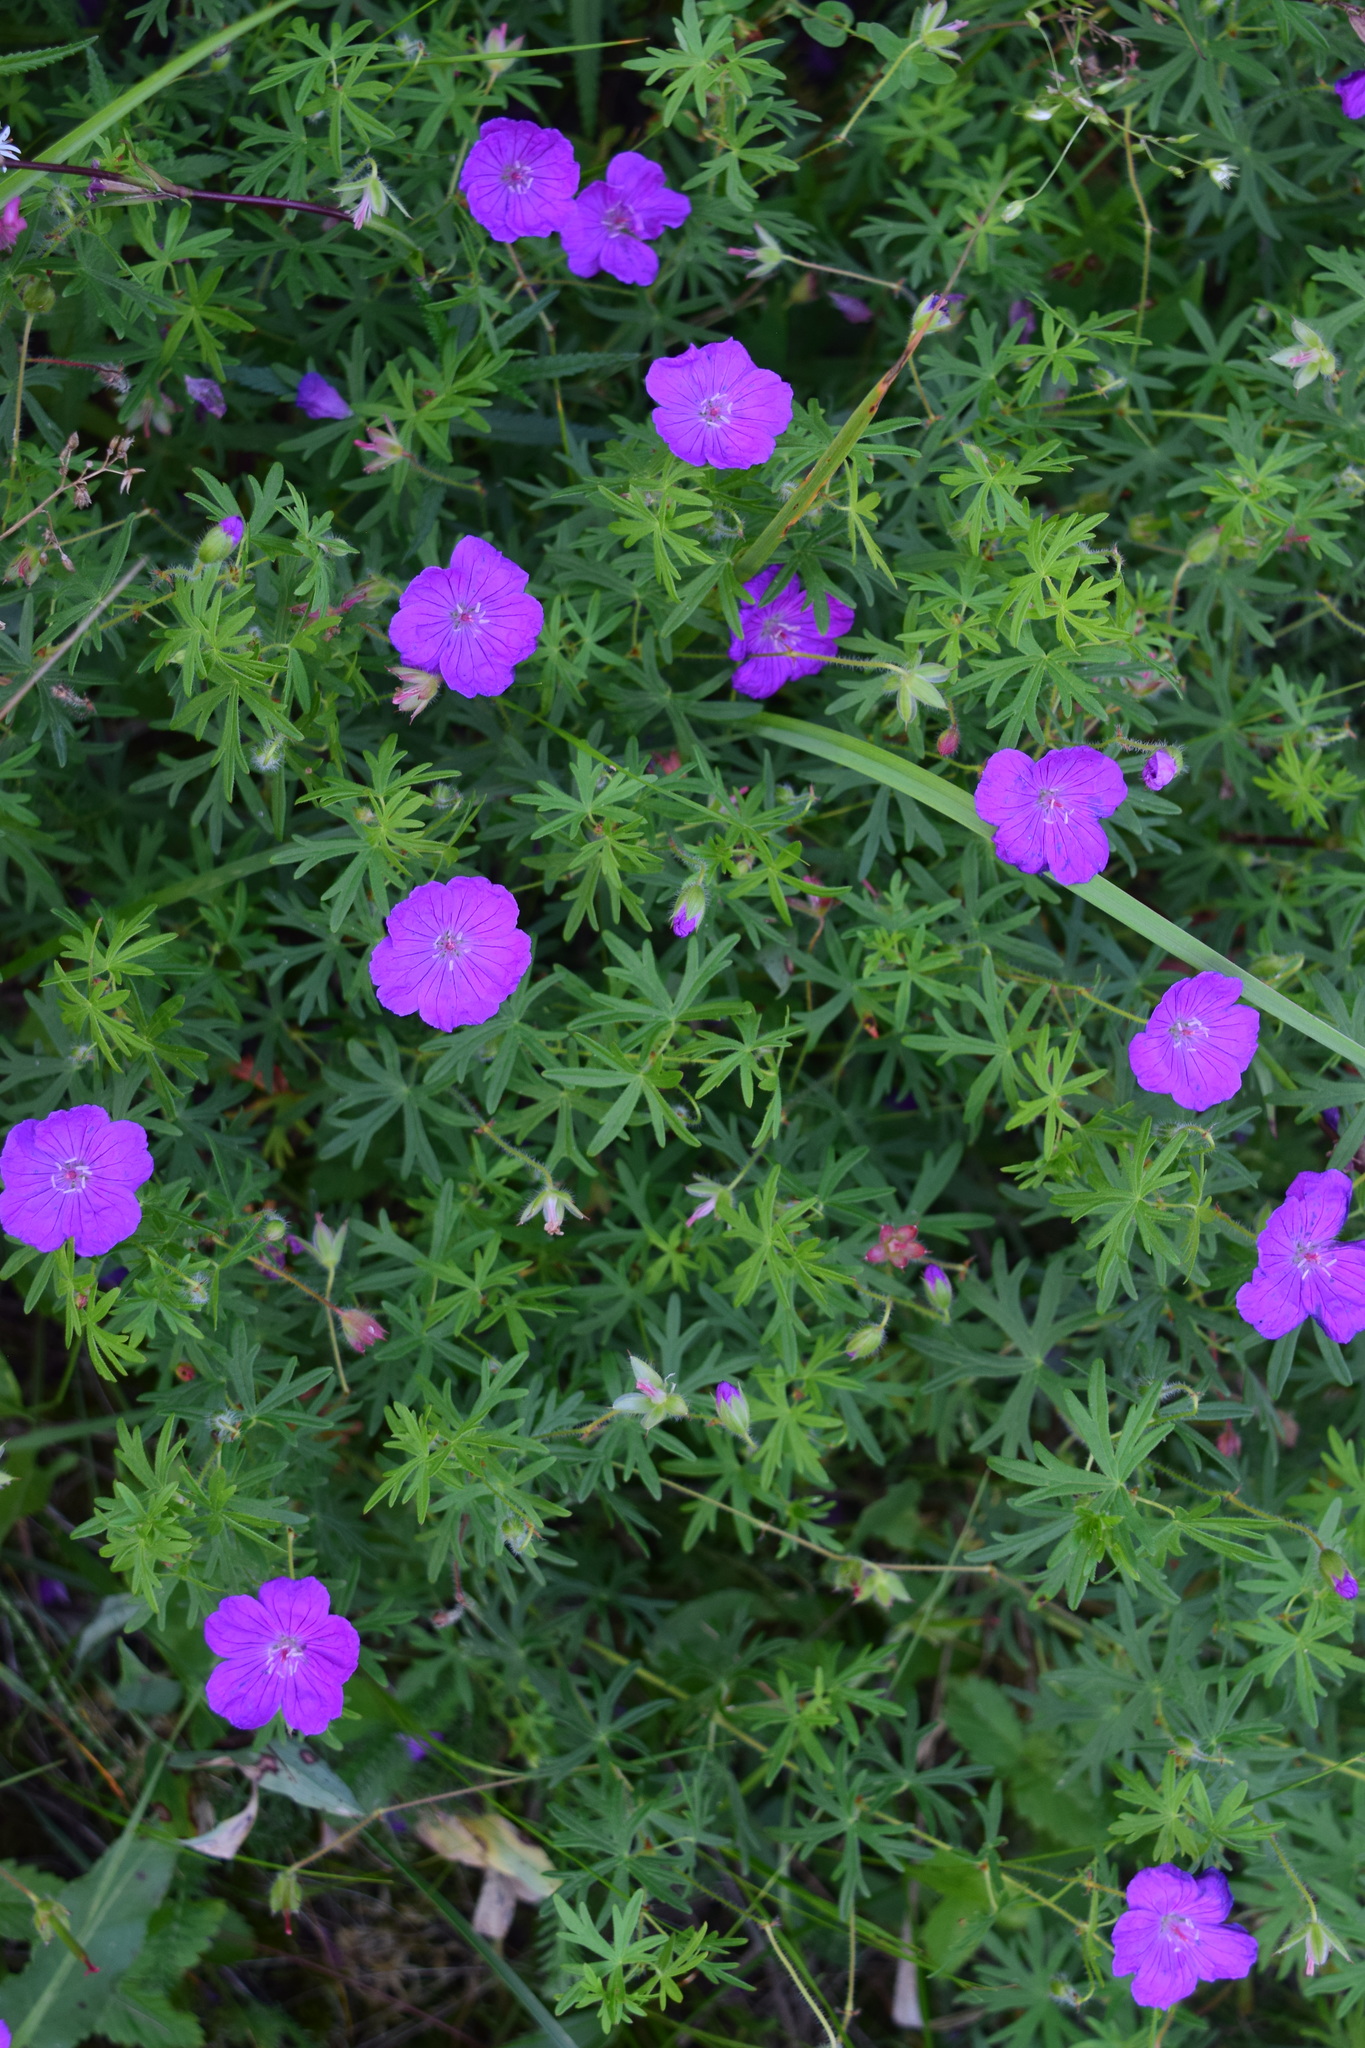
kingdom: Plantae
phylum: Tracheophyta
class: Magnoliopsida
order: Geraniales
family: Geraniaceae
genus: Geranium
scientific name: Geranium sanguineum
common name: Bloody crane's-bill
